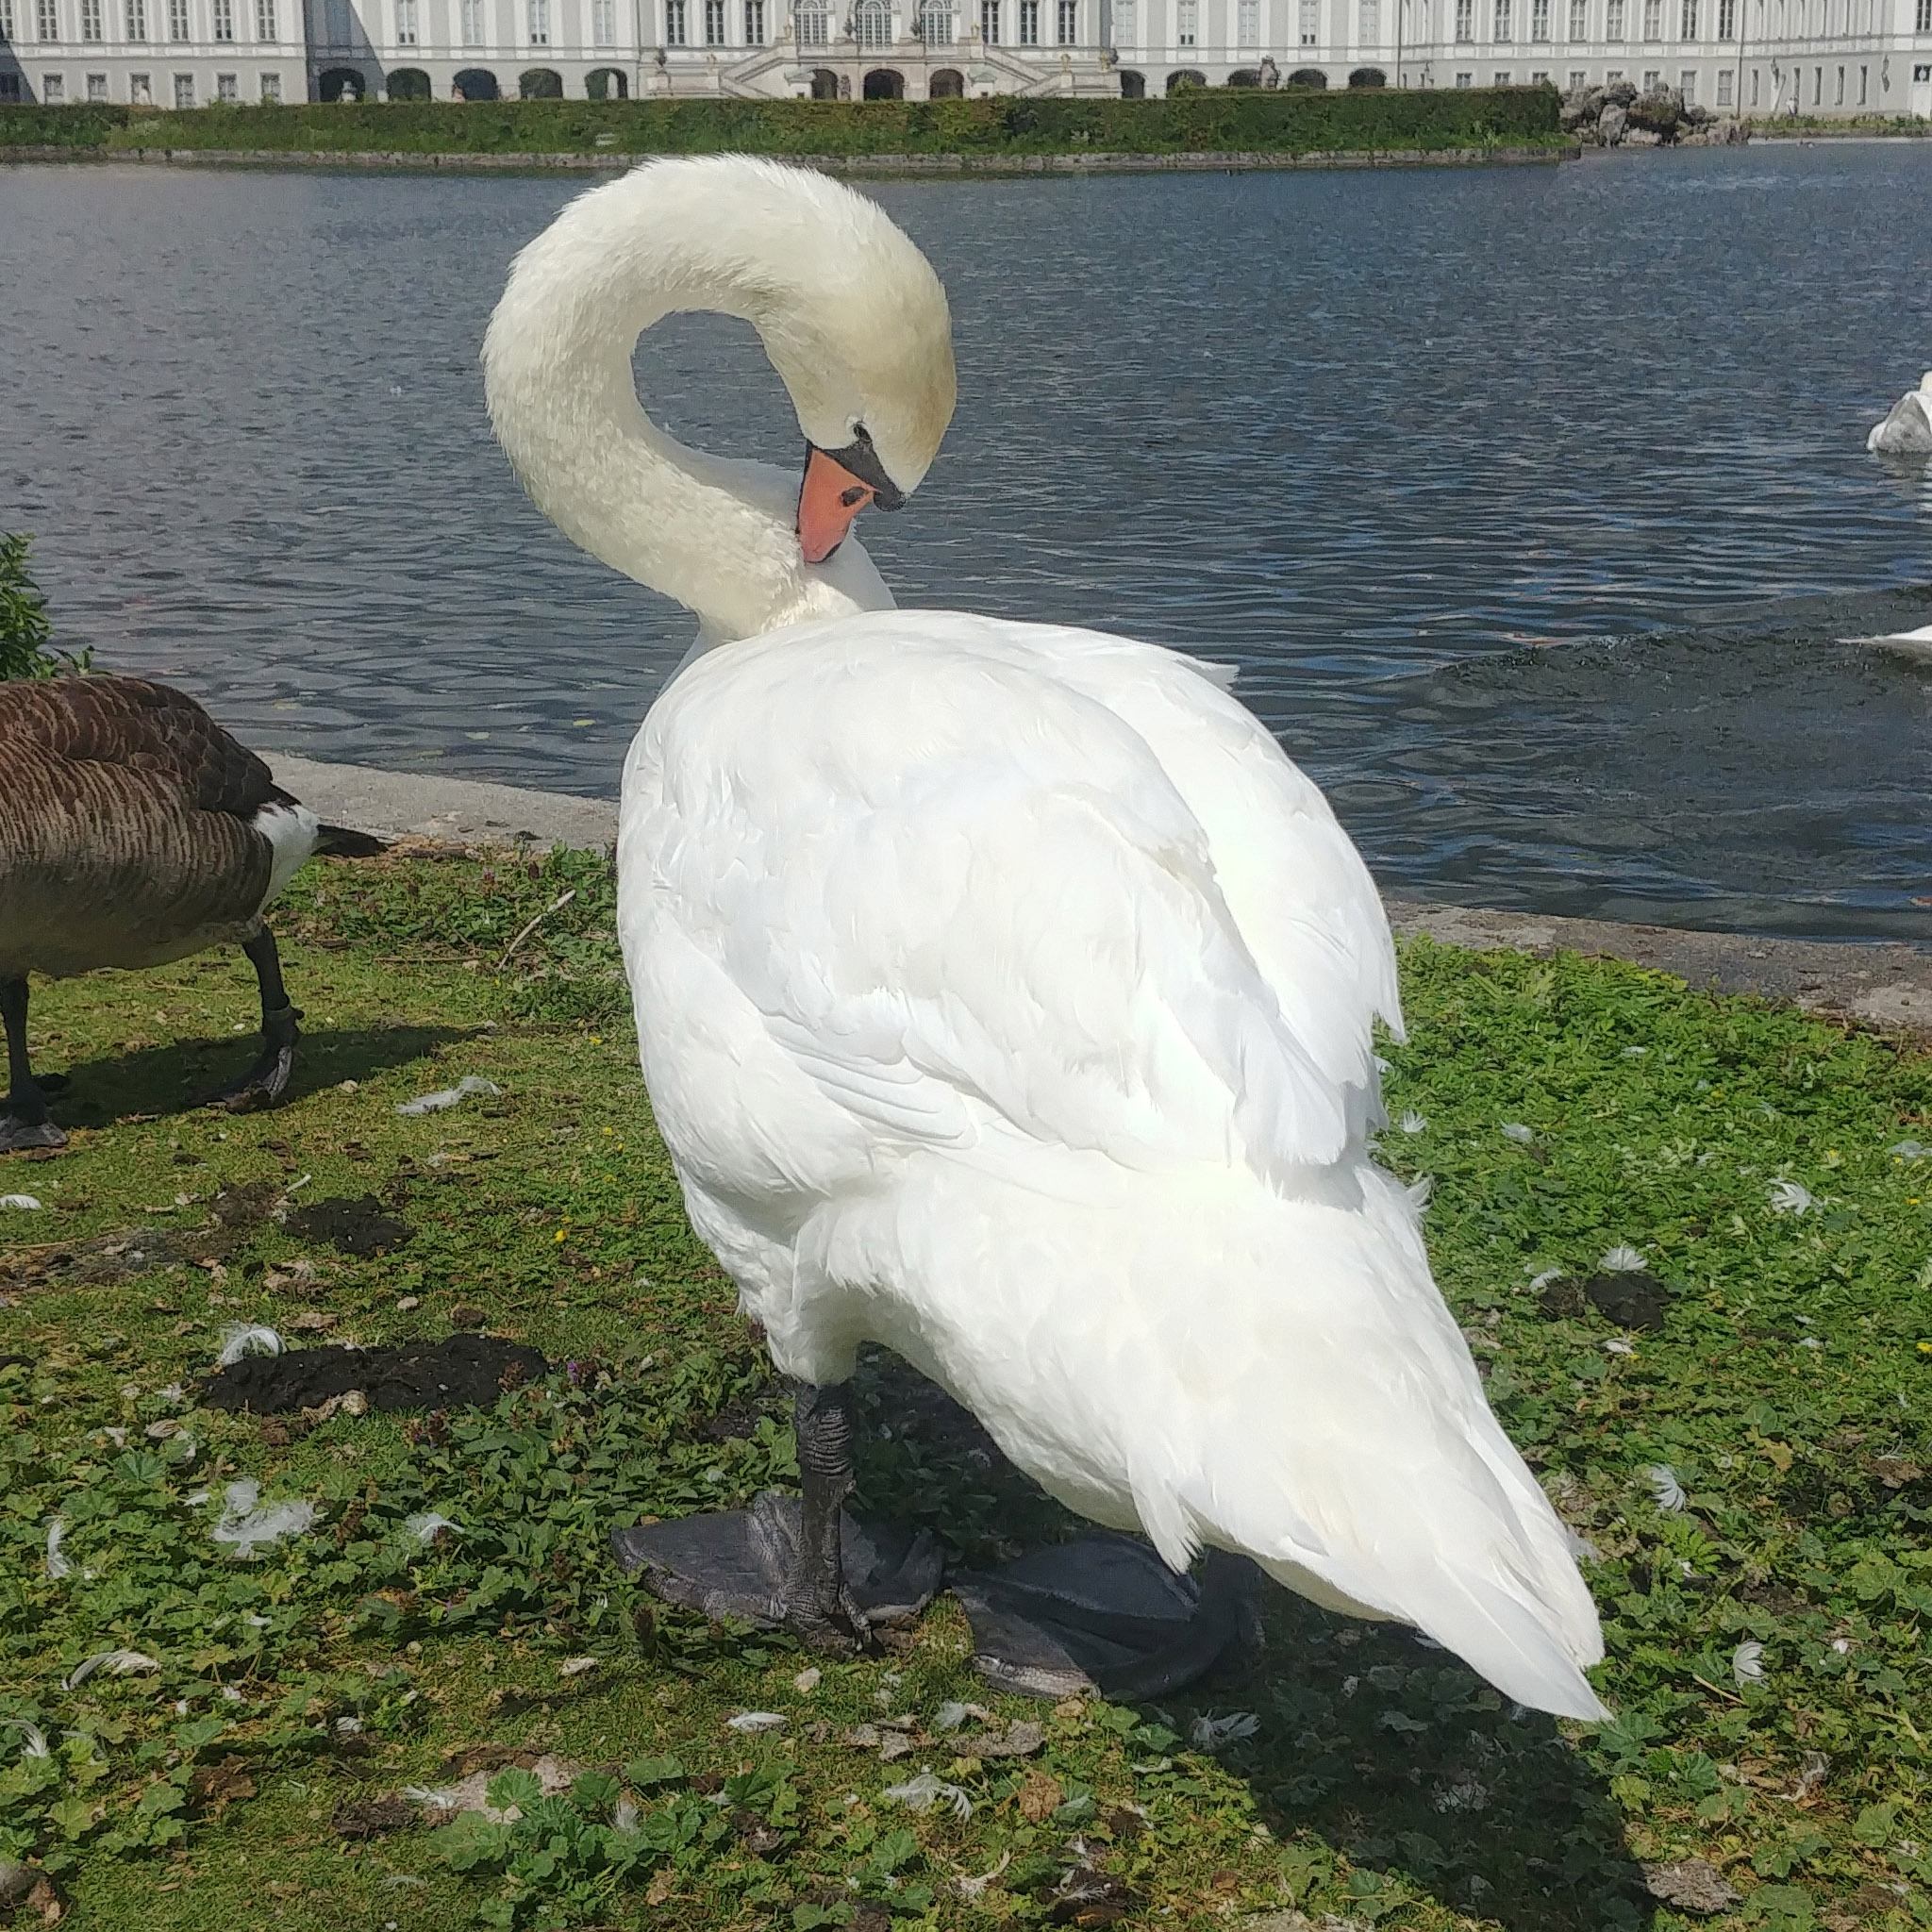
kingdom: Animalia
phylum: Chordata
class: Aves
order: Anseriformes
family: Anatidae
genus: Cygnus
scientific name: Cygnus olor
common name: Mute swan
